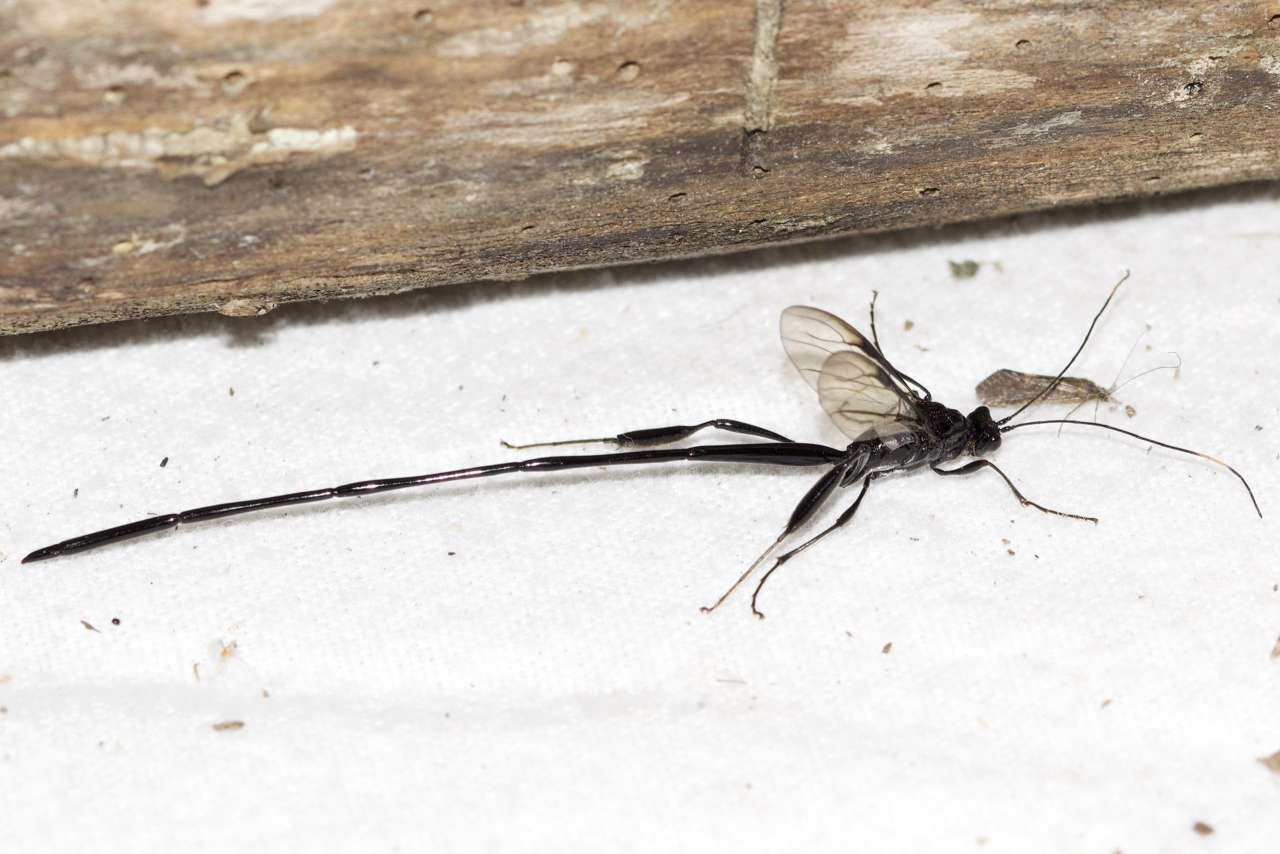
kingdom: Animalia
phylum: Arthropoda
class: Insecta
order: Hymenoptera
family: Pelecinidae
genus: Pelecinus
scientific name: Pelecinus polyturator
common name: American pelecinid wasp
